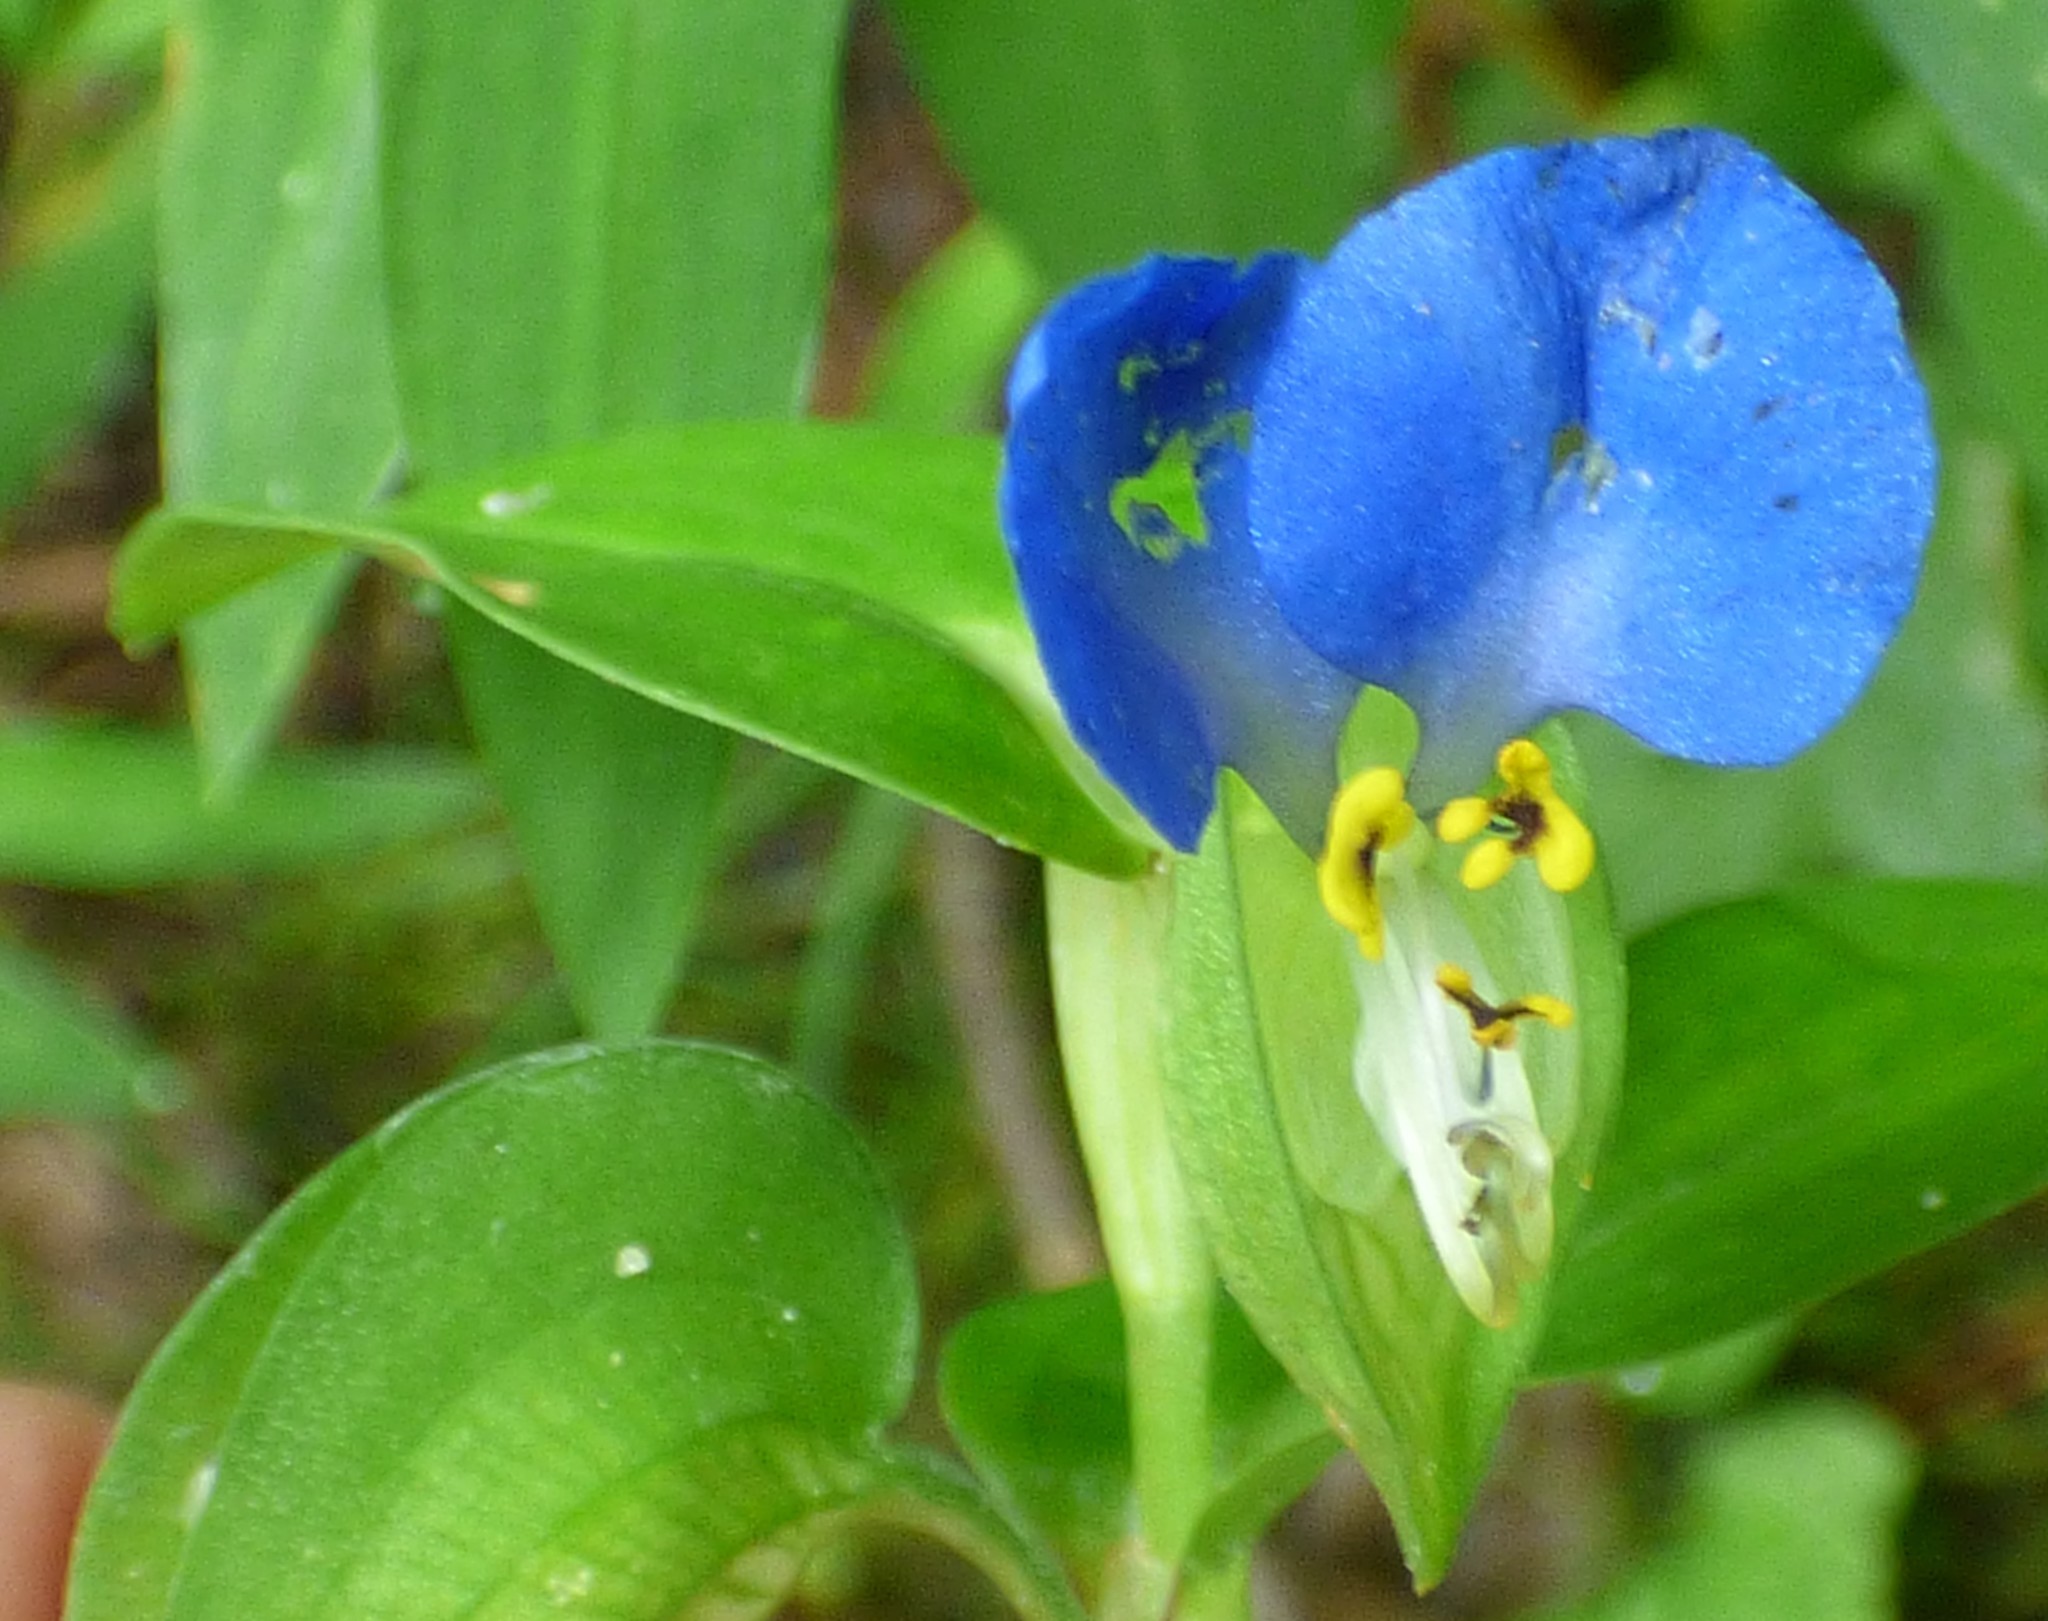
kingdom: Plantae
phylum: Tracheophyta
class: Liliopsida
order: Commelinales
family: Commelinaceae
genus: Commelina
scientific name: Commelina communis
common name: Asiatic dayflower
